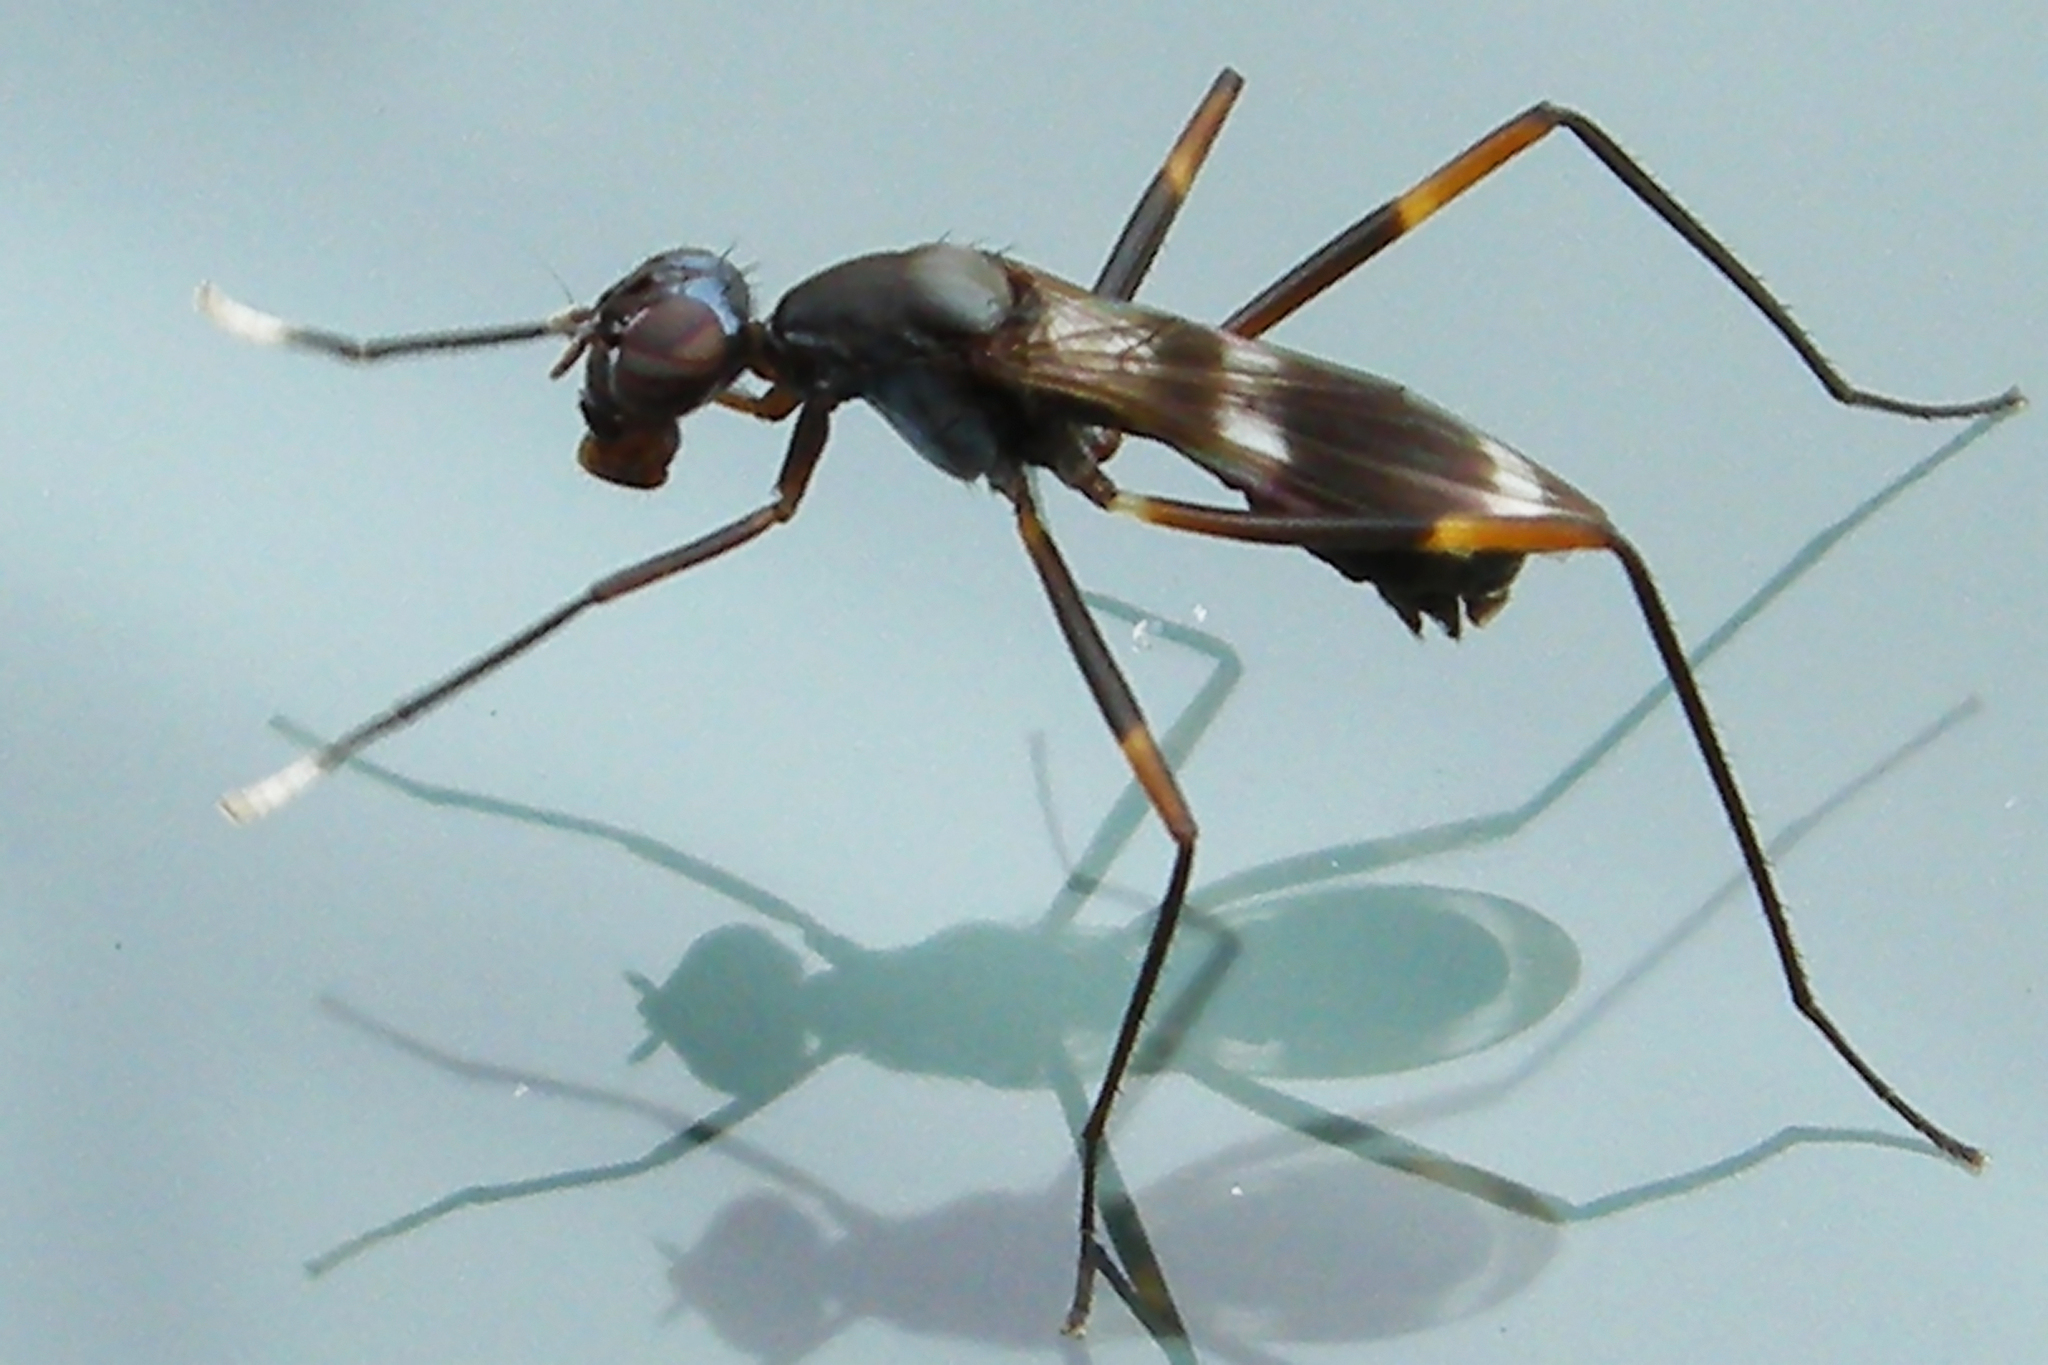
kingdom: Animalia
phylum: Arthropoda
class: Insecta
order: Diptera
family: Micropezidae
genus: Taeniaptera
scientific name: Taeniaptera trivittata
